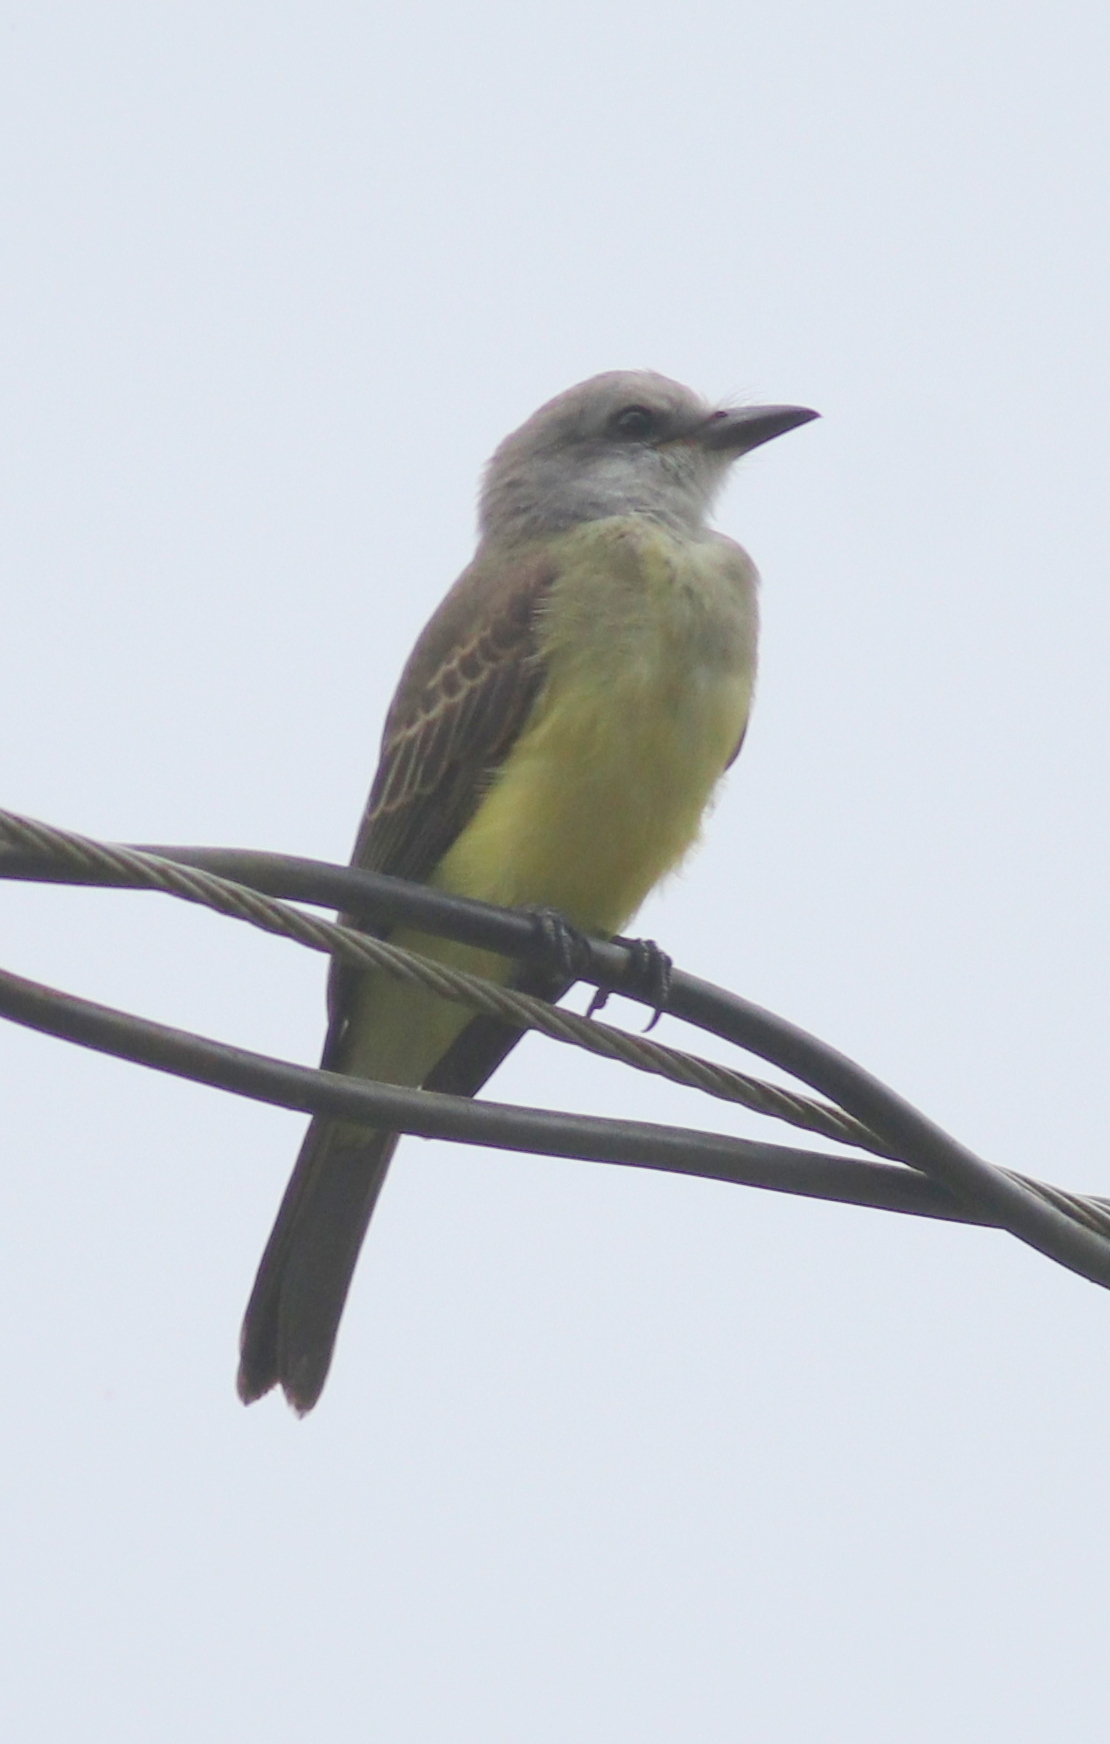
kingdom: Animalia
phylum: Chordata
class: Aves
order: Passeriformes
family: Tyrannidae
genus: Tyrannus
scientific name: Tyrannus melancholicus
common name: Tropical kingbird
